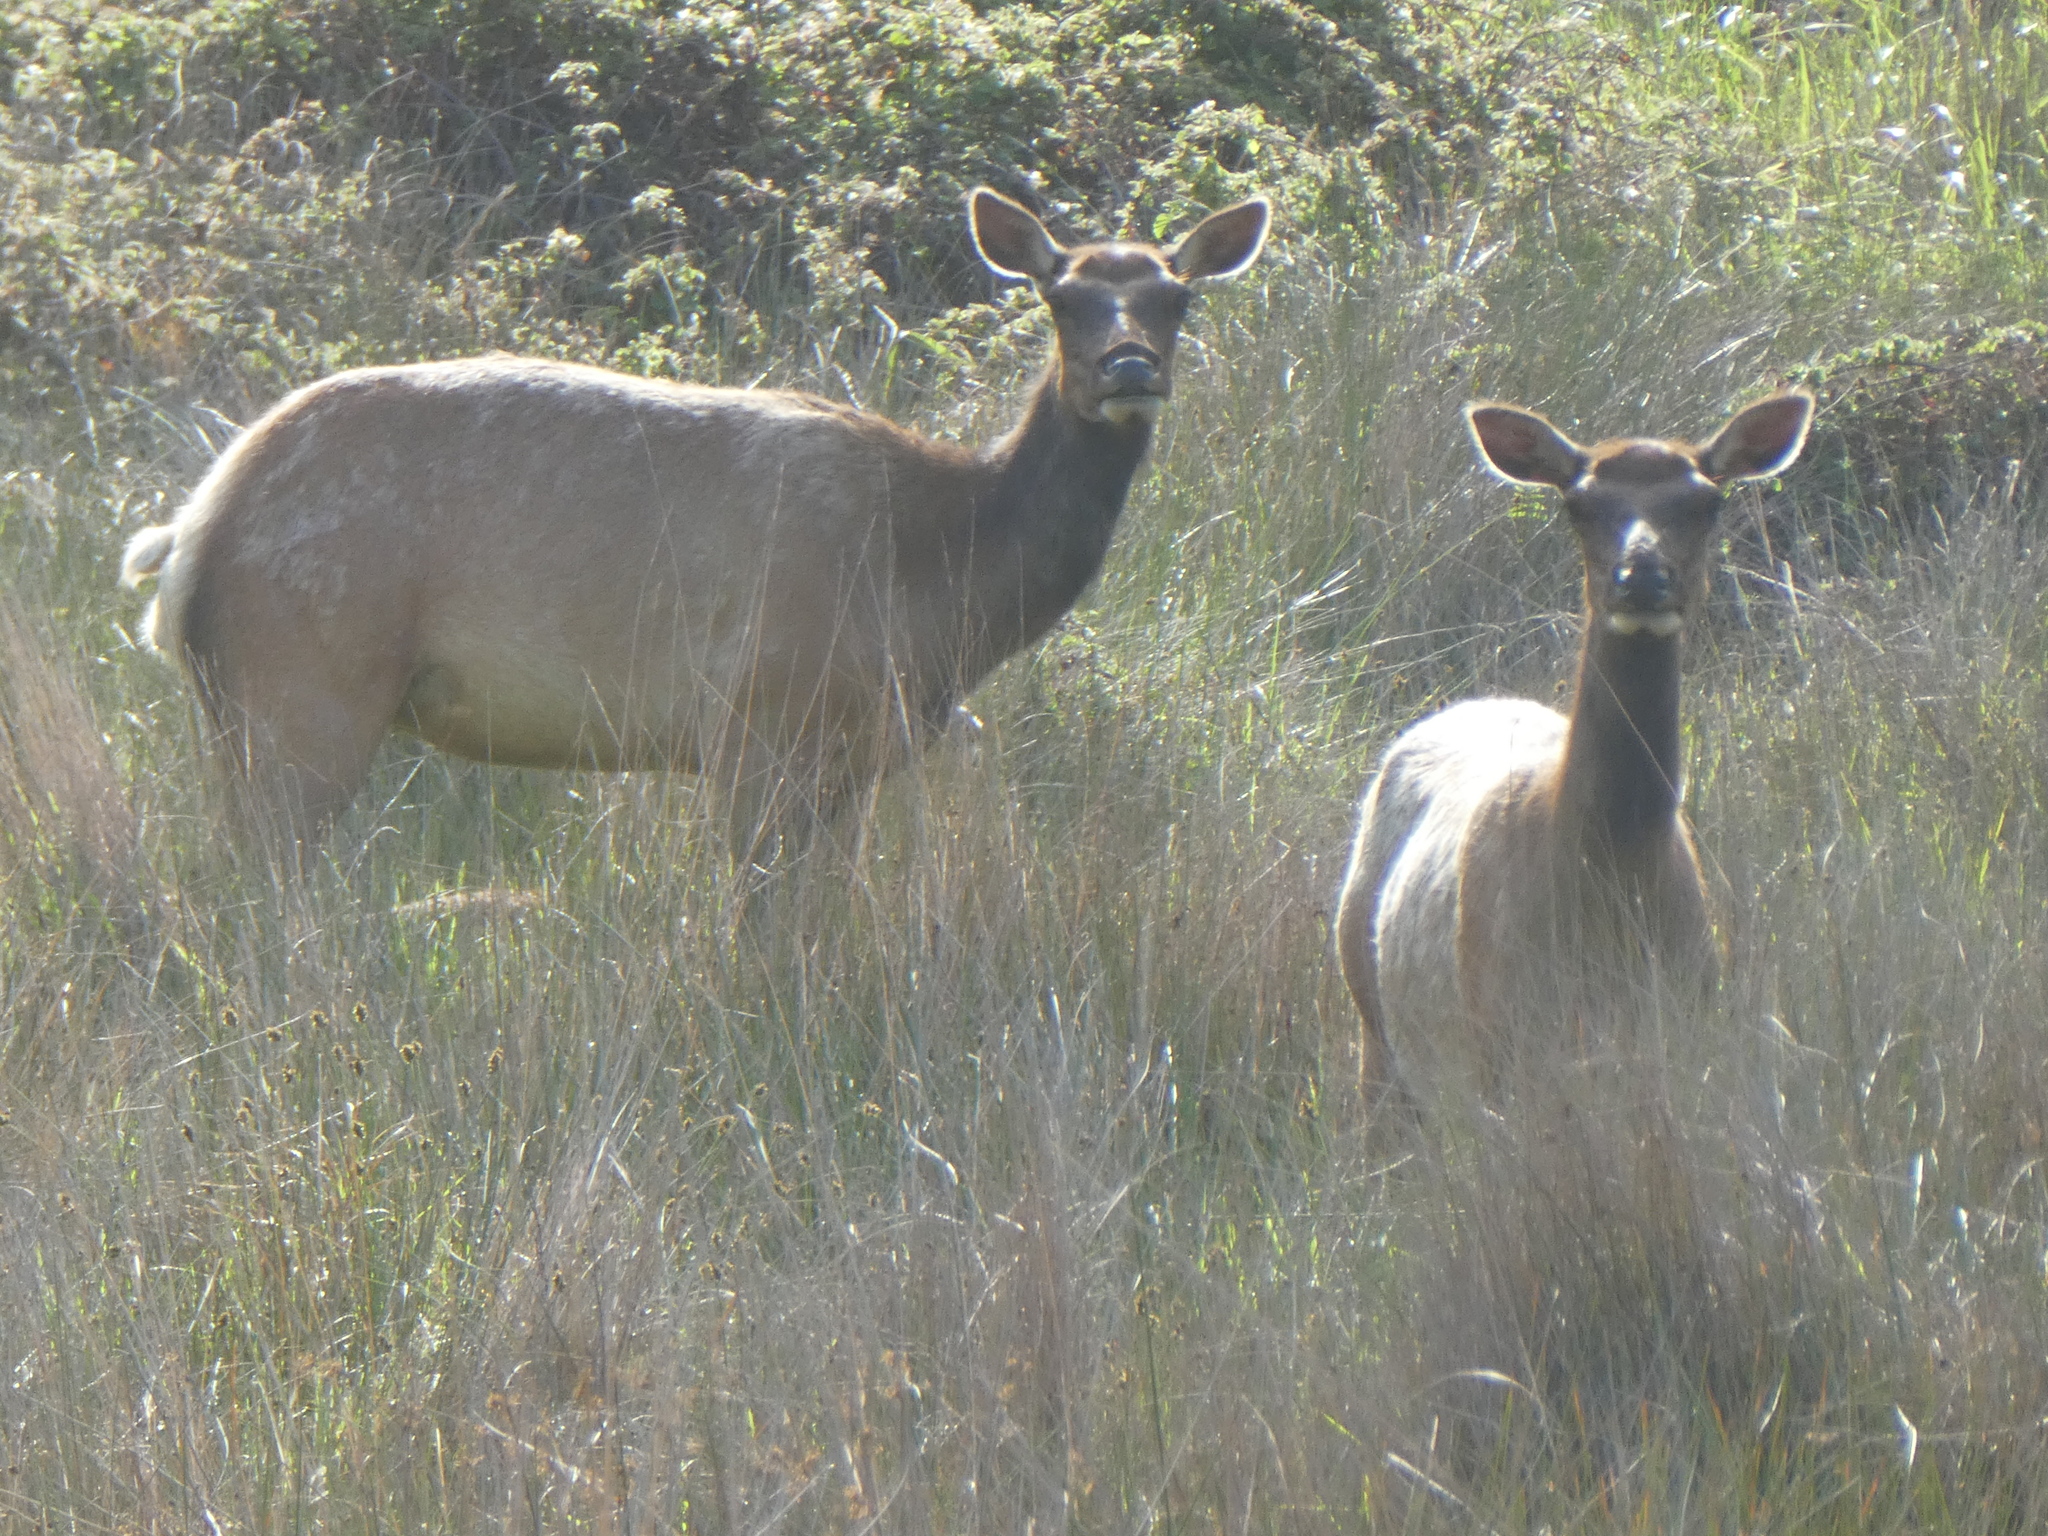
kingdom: Animalia
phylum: Chordata
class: Mammalia
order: Artiodactyla
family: Cervidae
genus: Cervus
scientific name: Cervus elaphus
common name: Red deer
